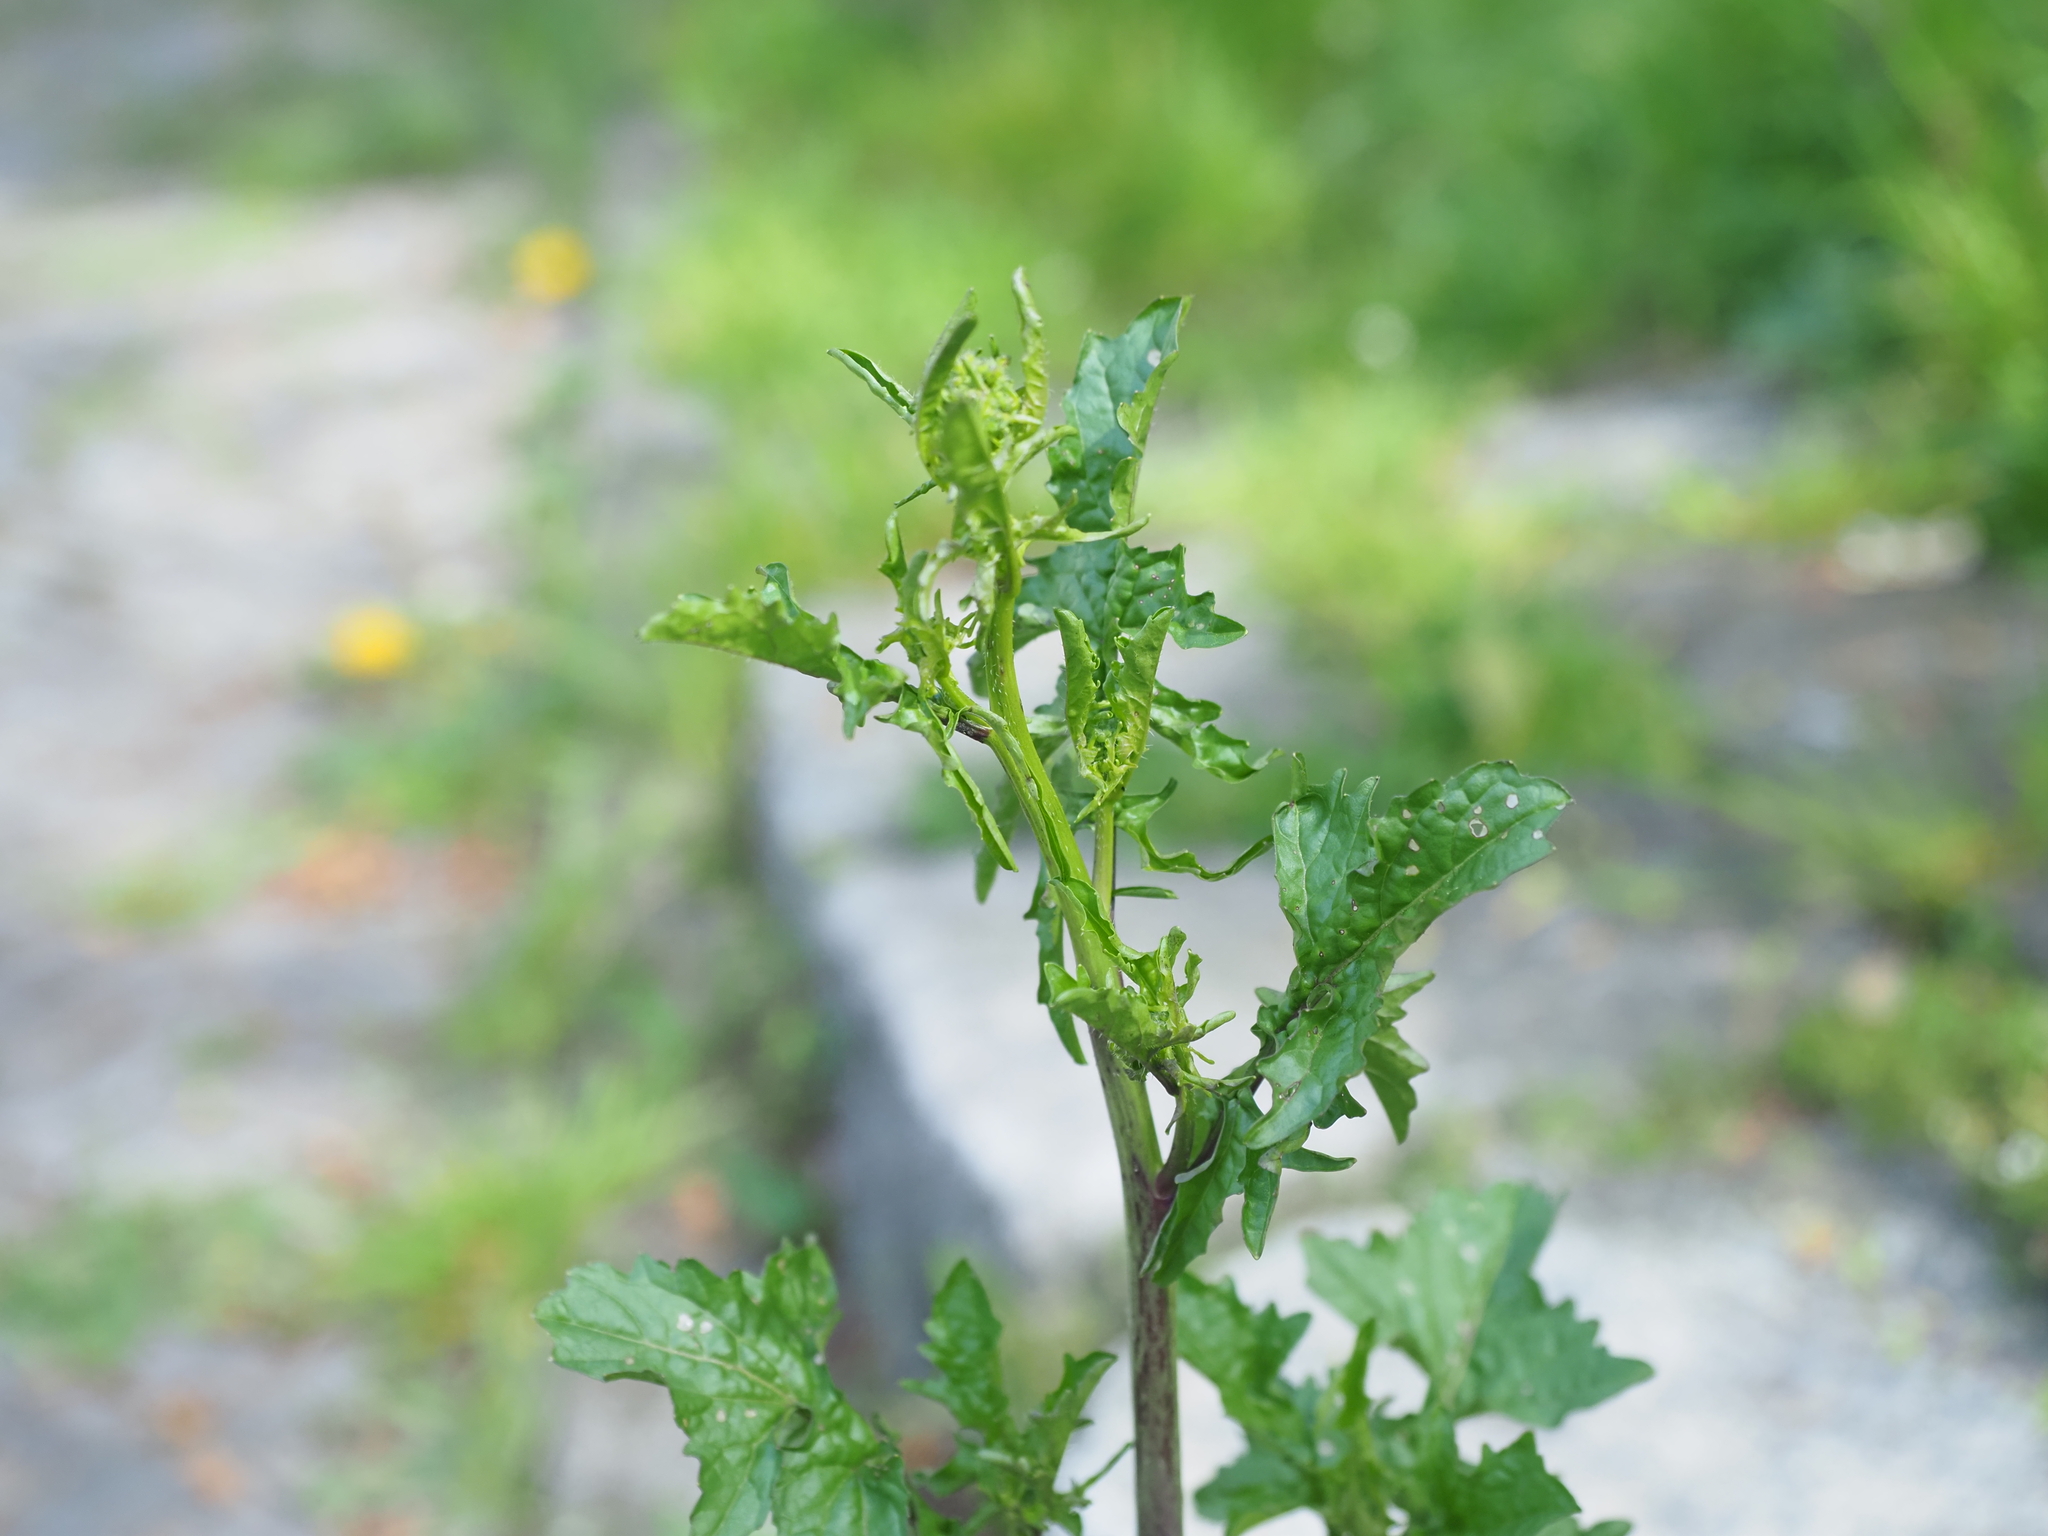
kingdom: Plantae
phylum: Tracheophyta
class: Magnoliopsida
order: Asterales
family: Asteraceae
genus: Senecio
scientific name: Senecio vulgaris
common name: Old-man-in-the-spring
